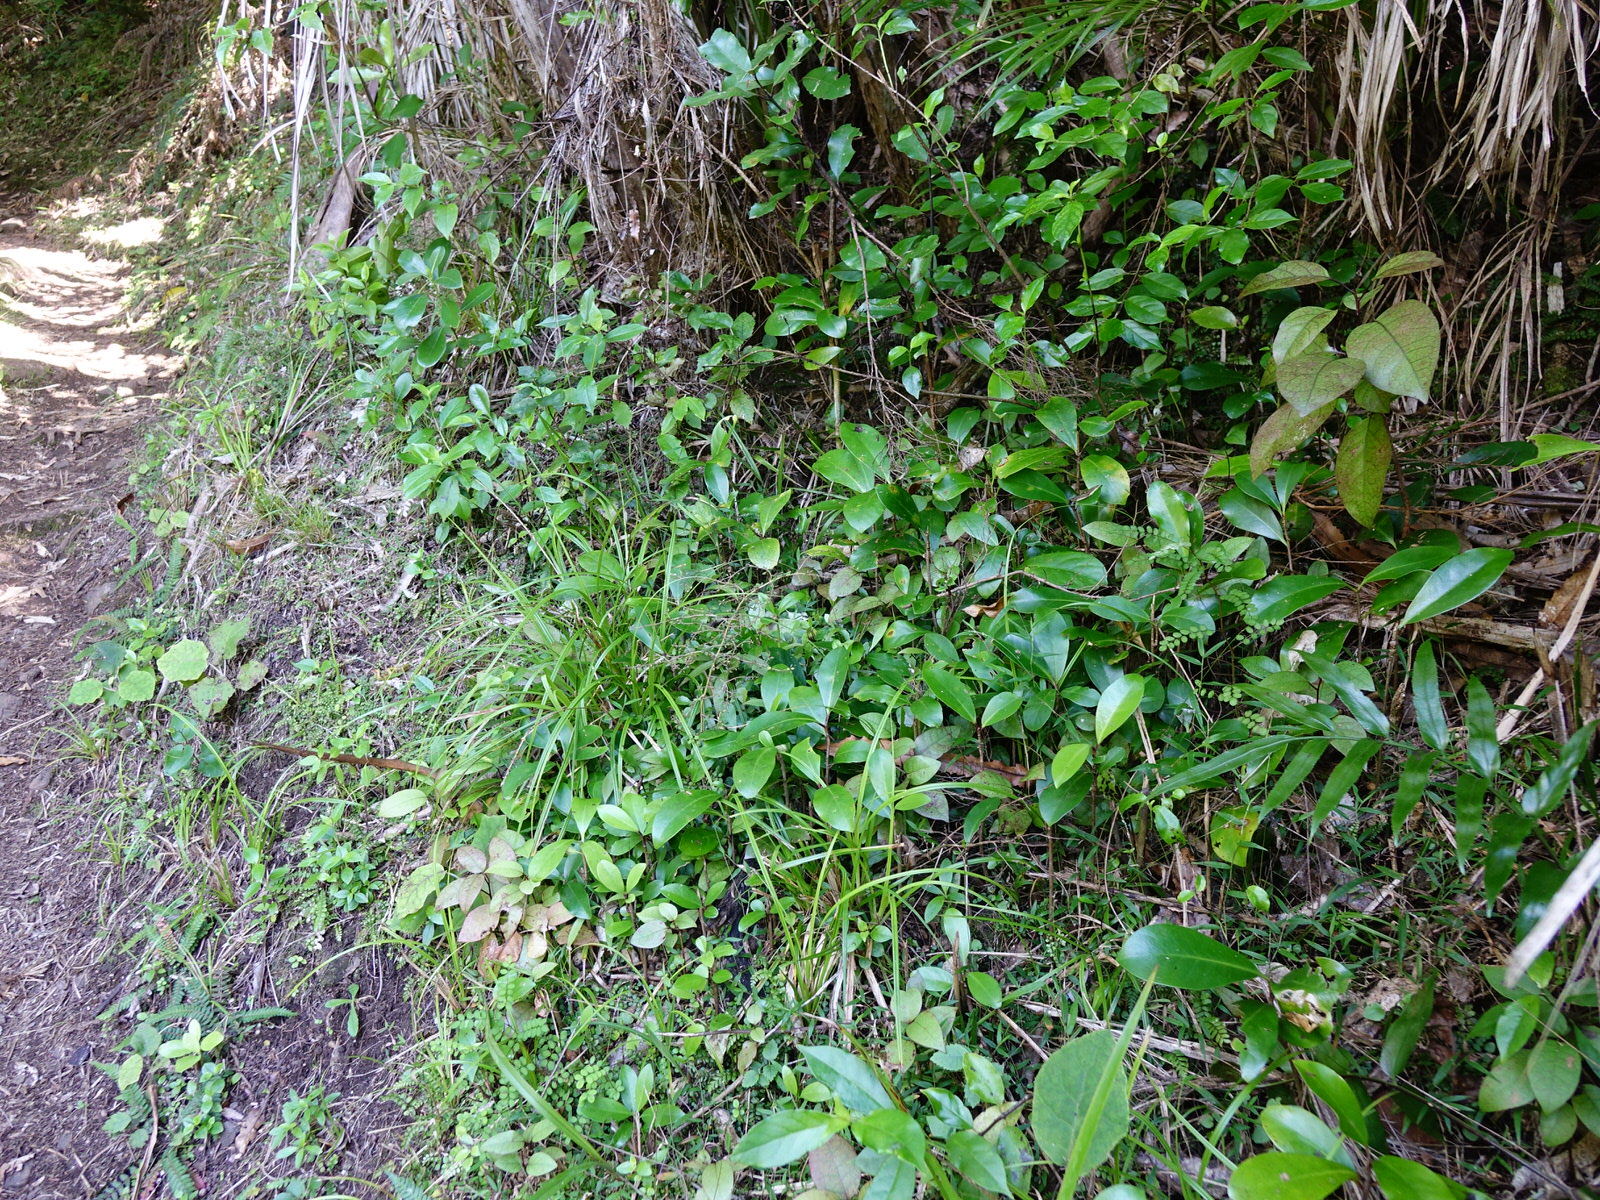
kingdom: Plantae
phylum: Tracheophyta
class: Magnoliopsida
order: Laurales
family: Lauraceae
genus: Litsea
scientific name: Litsea calicaris
